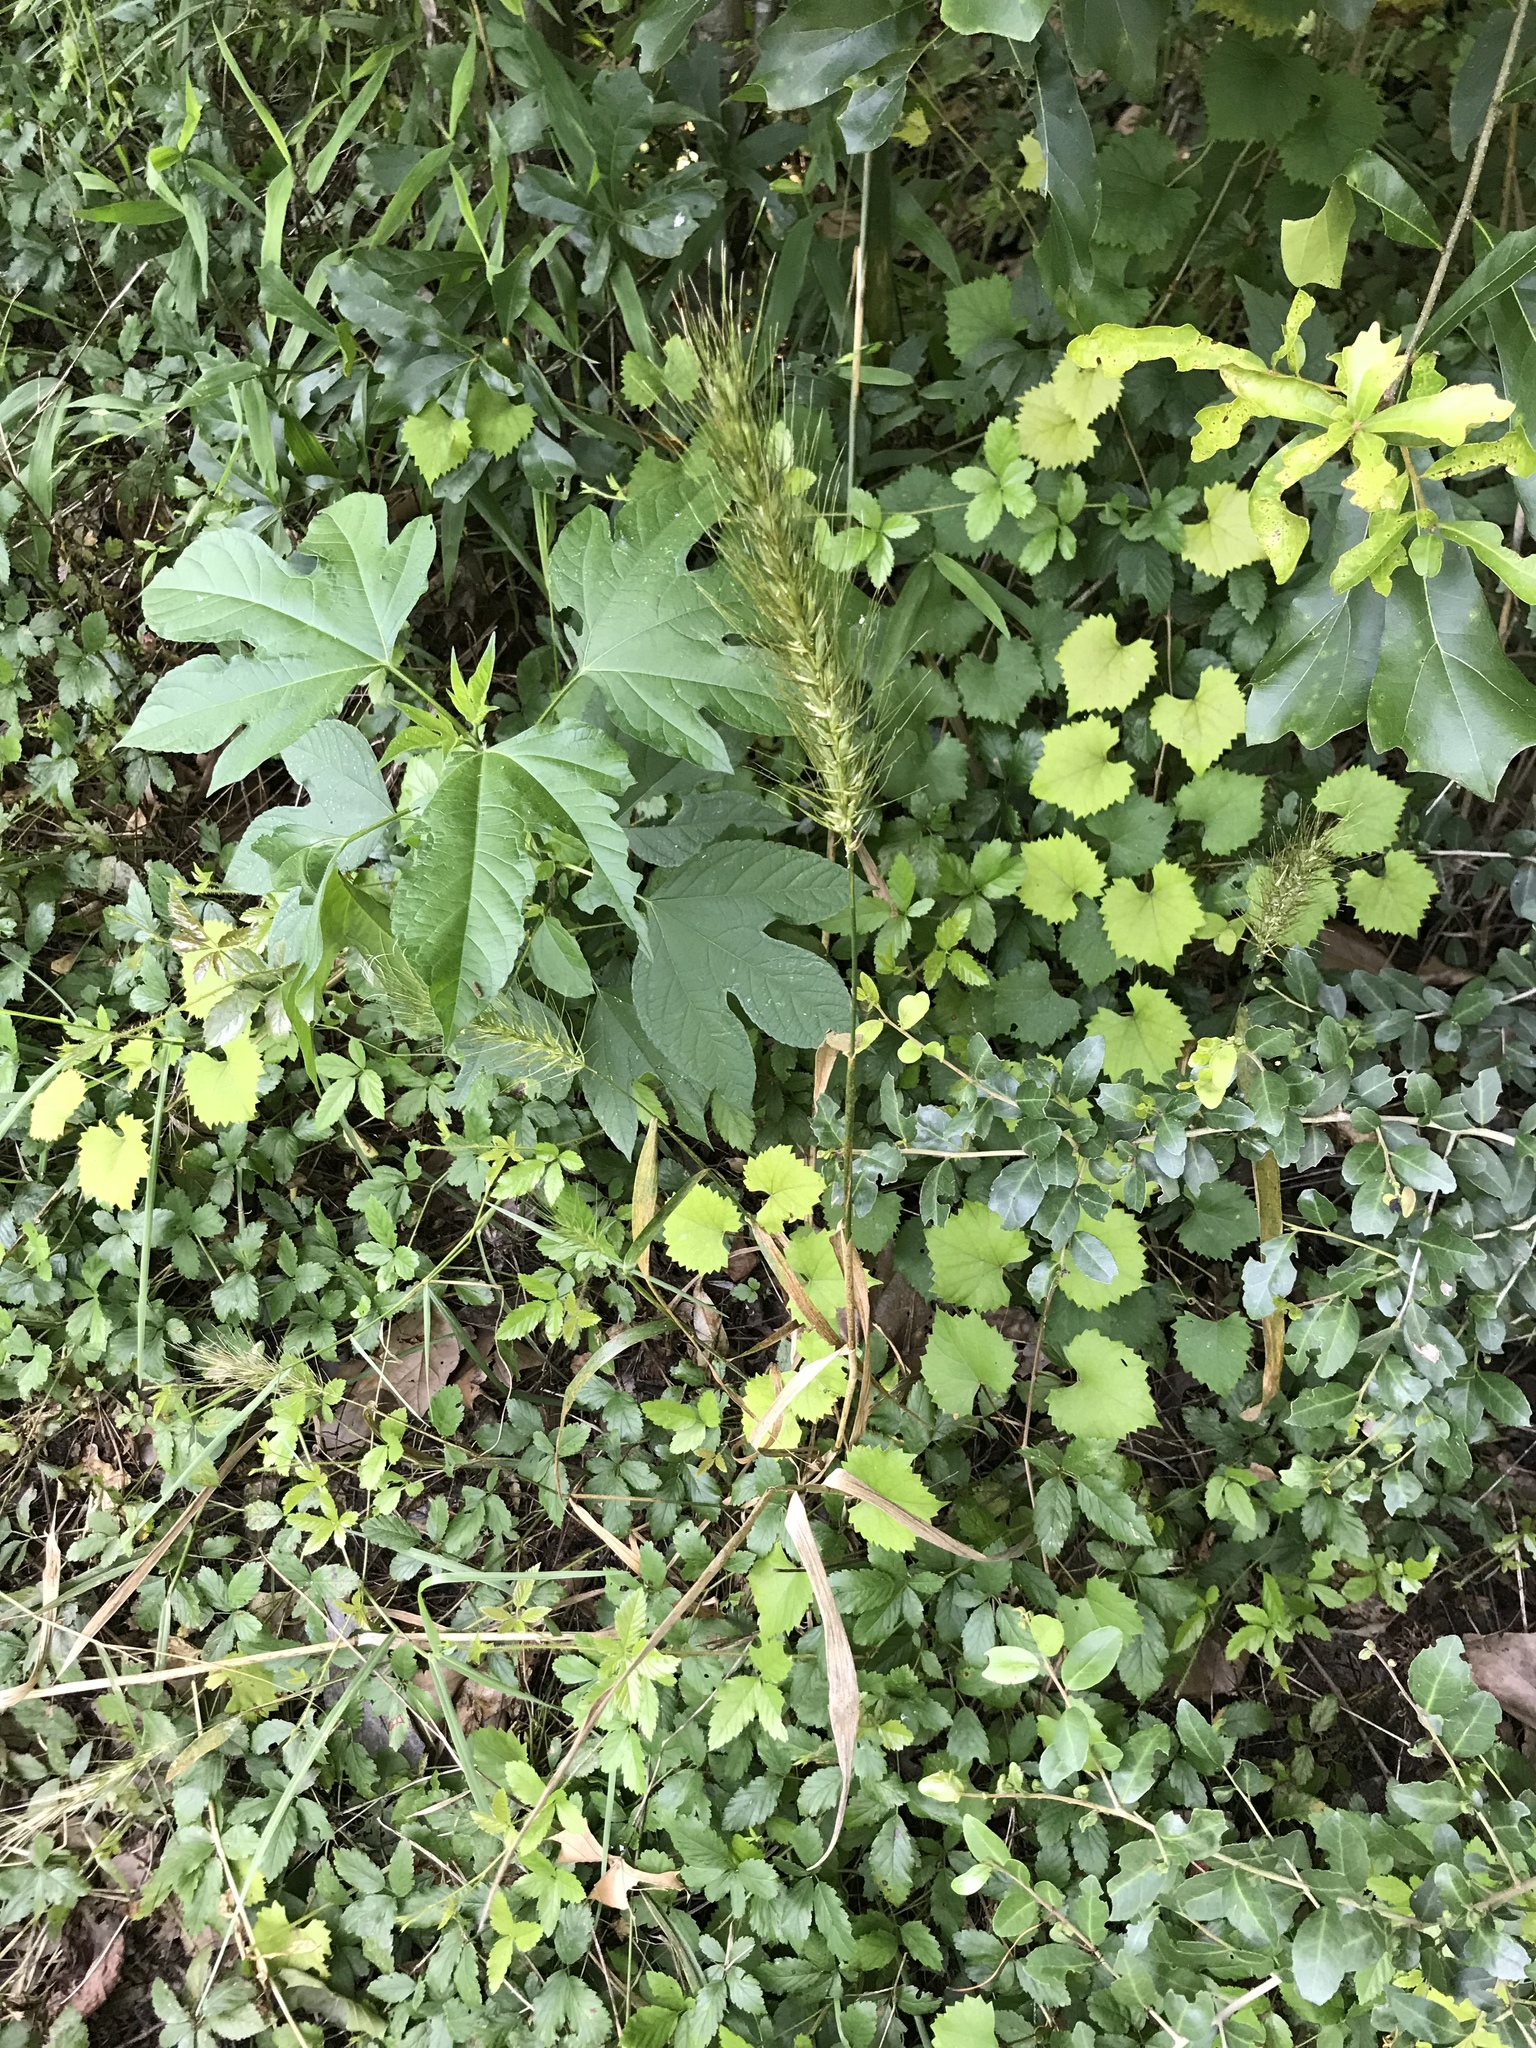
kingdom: Plantae
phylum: Tracheophyta
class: Liliopsida
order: Poales
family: Poaceae
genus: Elymus
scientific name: Elymus canadensis
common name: Canada wild rye
